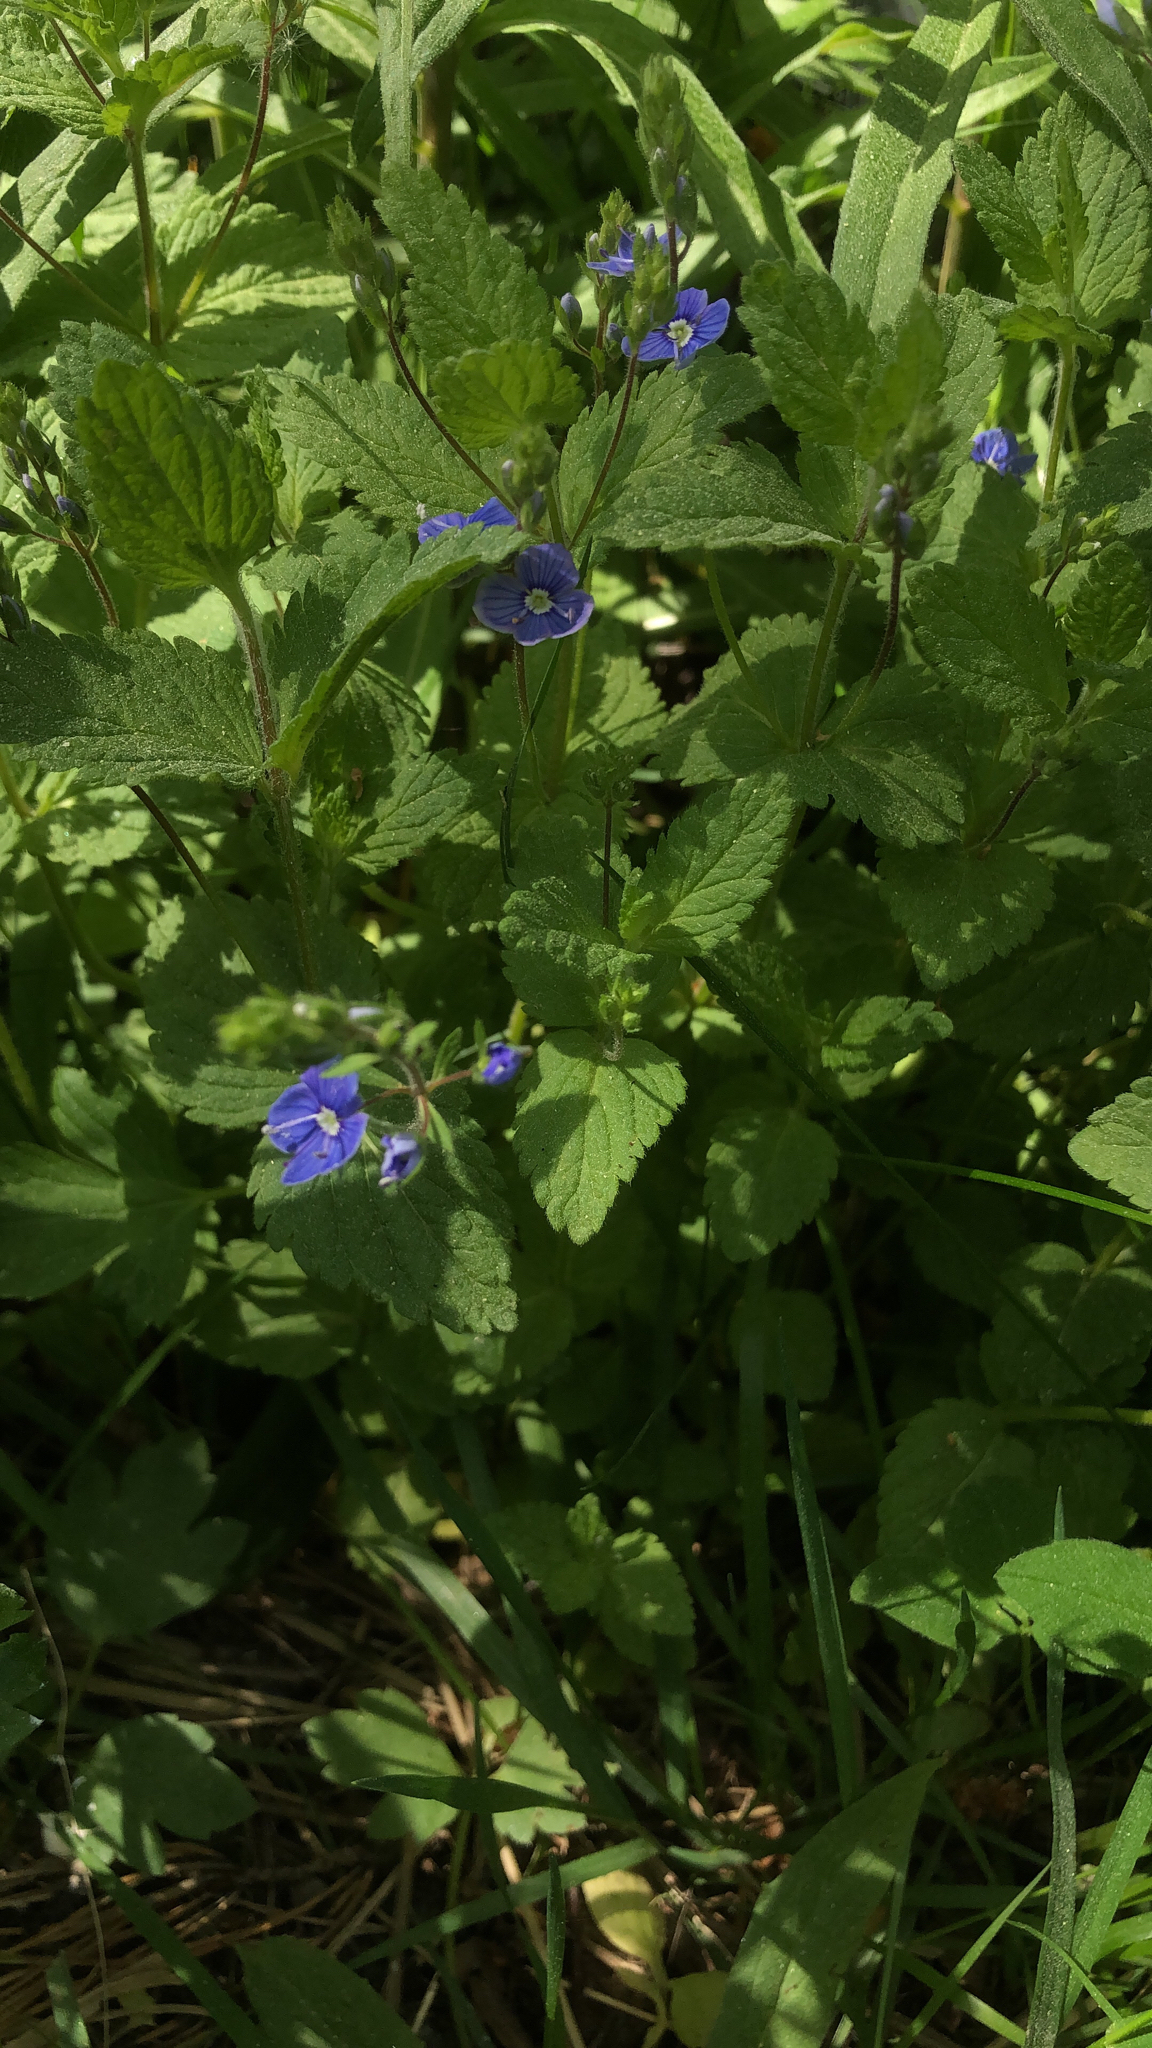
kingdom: Plantae
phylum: Tracheophyta
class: Magnoliopsida
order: Lamiales
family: Plantaginaceae
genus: Veronica
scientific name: Veronica chamaedrys
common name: Germander speedwell
